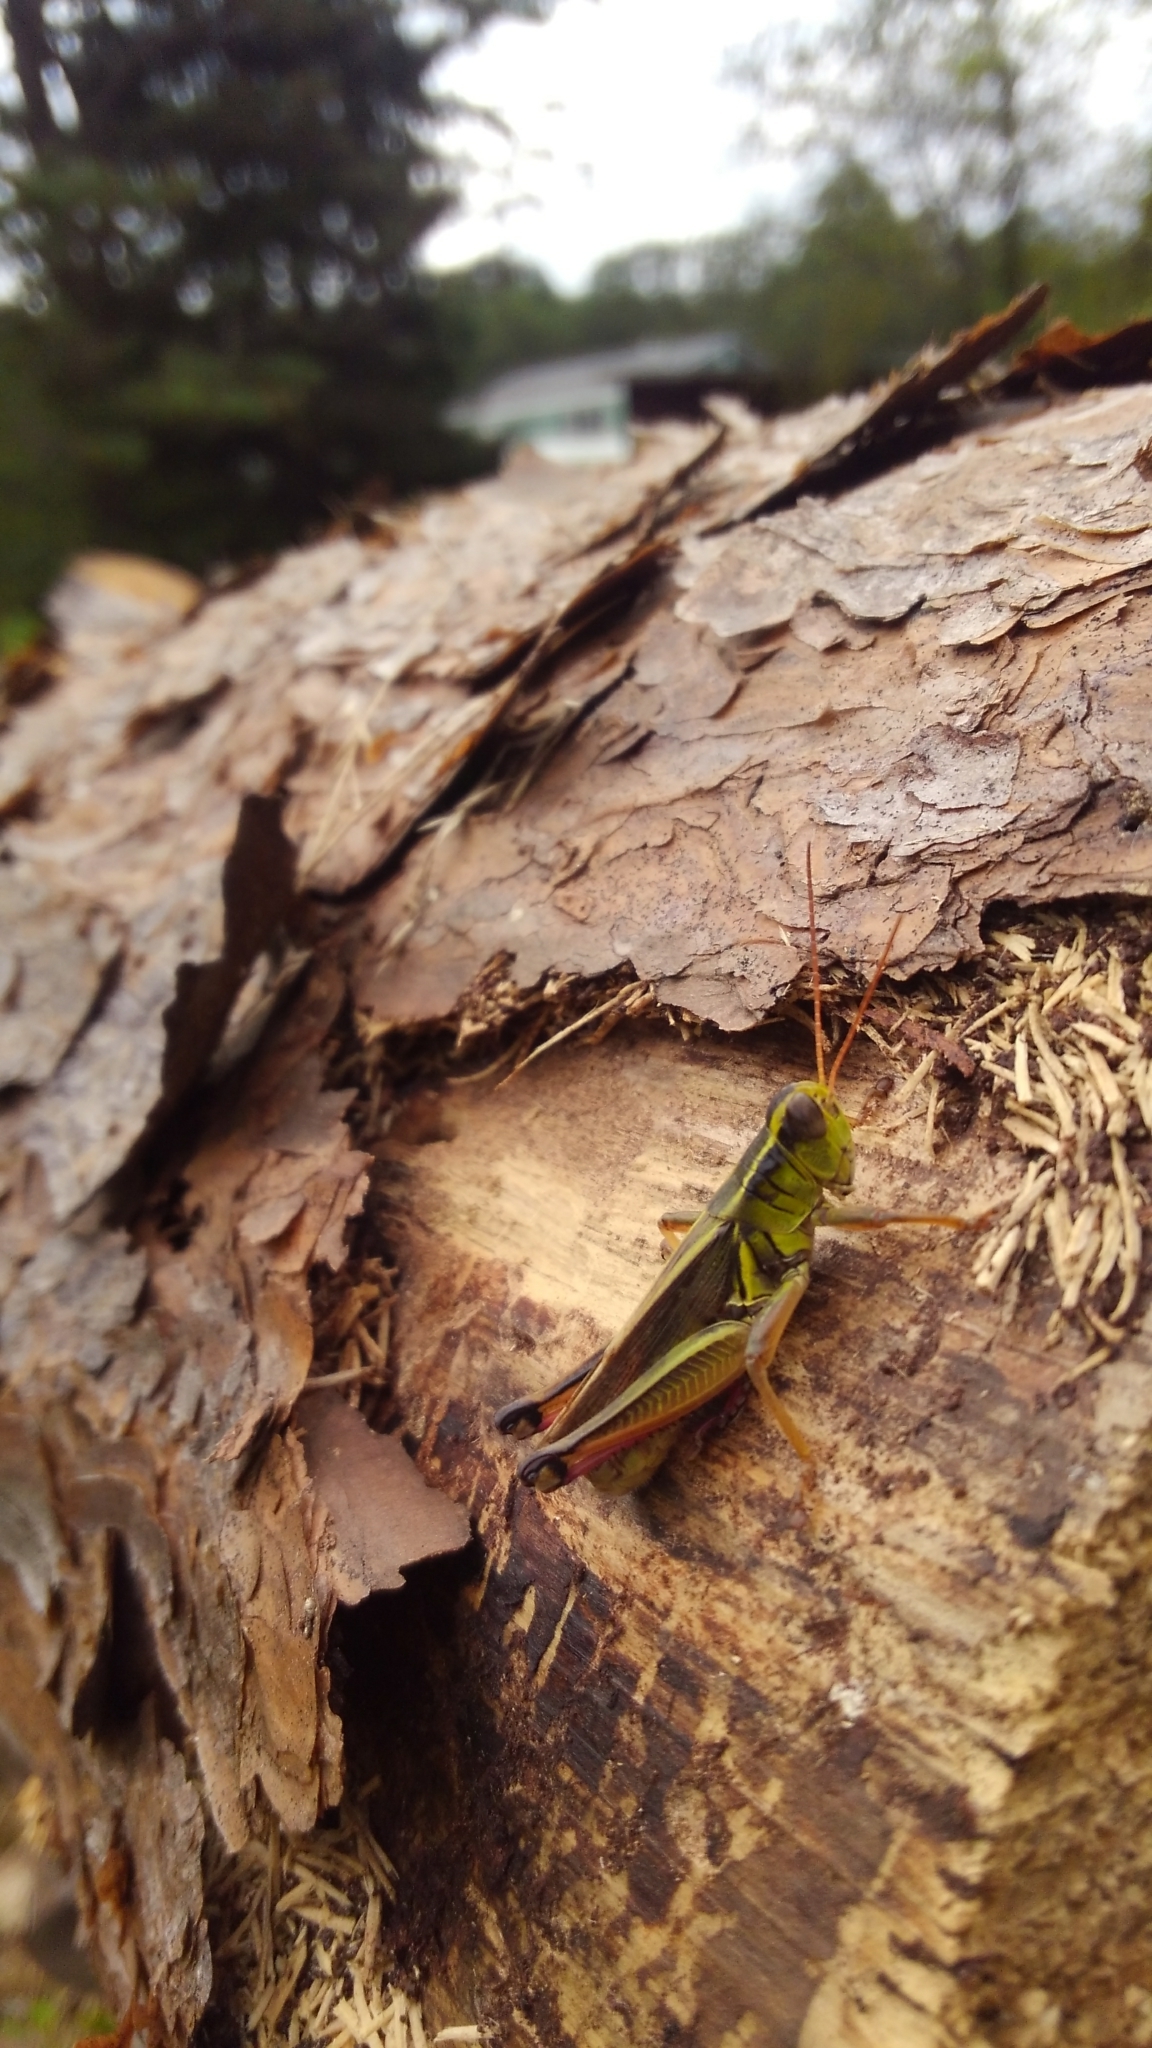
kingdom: Animalia
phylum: Arthropoda
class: Insecta
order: Orthoptera
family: Acrididae
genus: Melanoplus
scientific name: Melanoplus bivittatus
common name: Two-striped grasshopper
